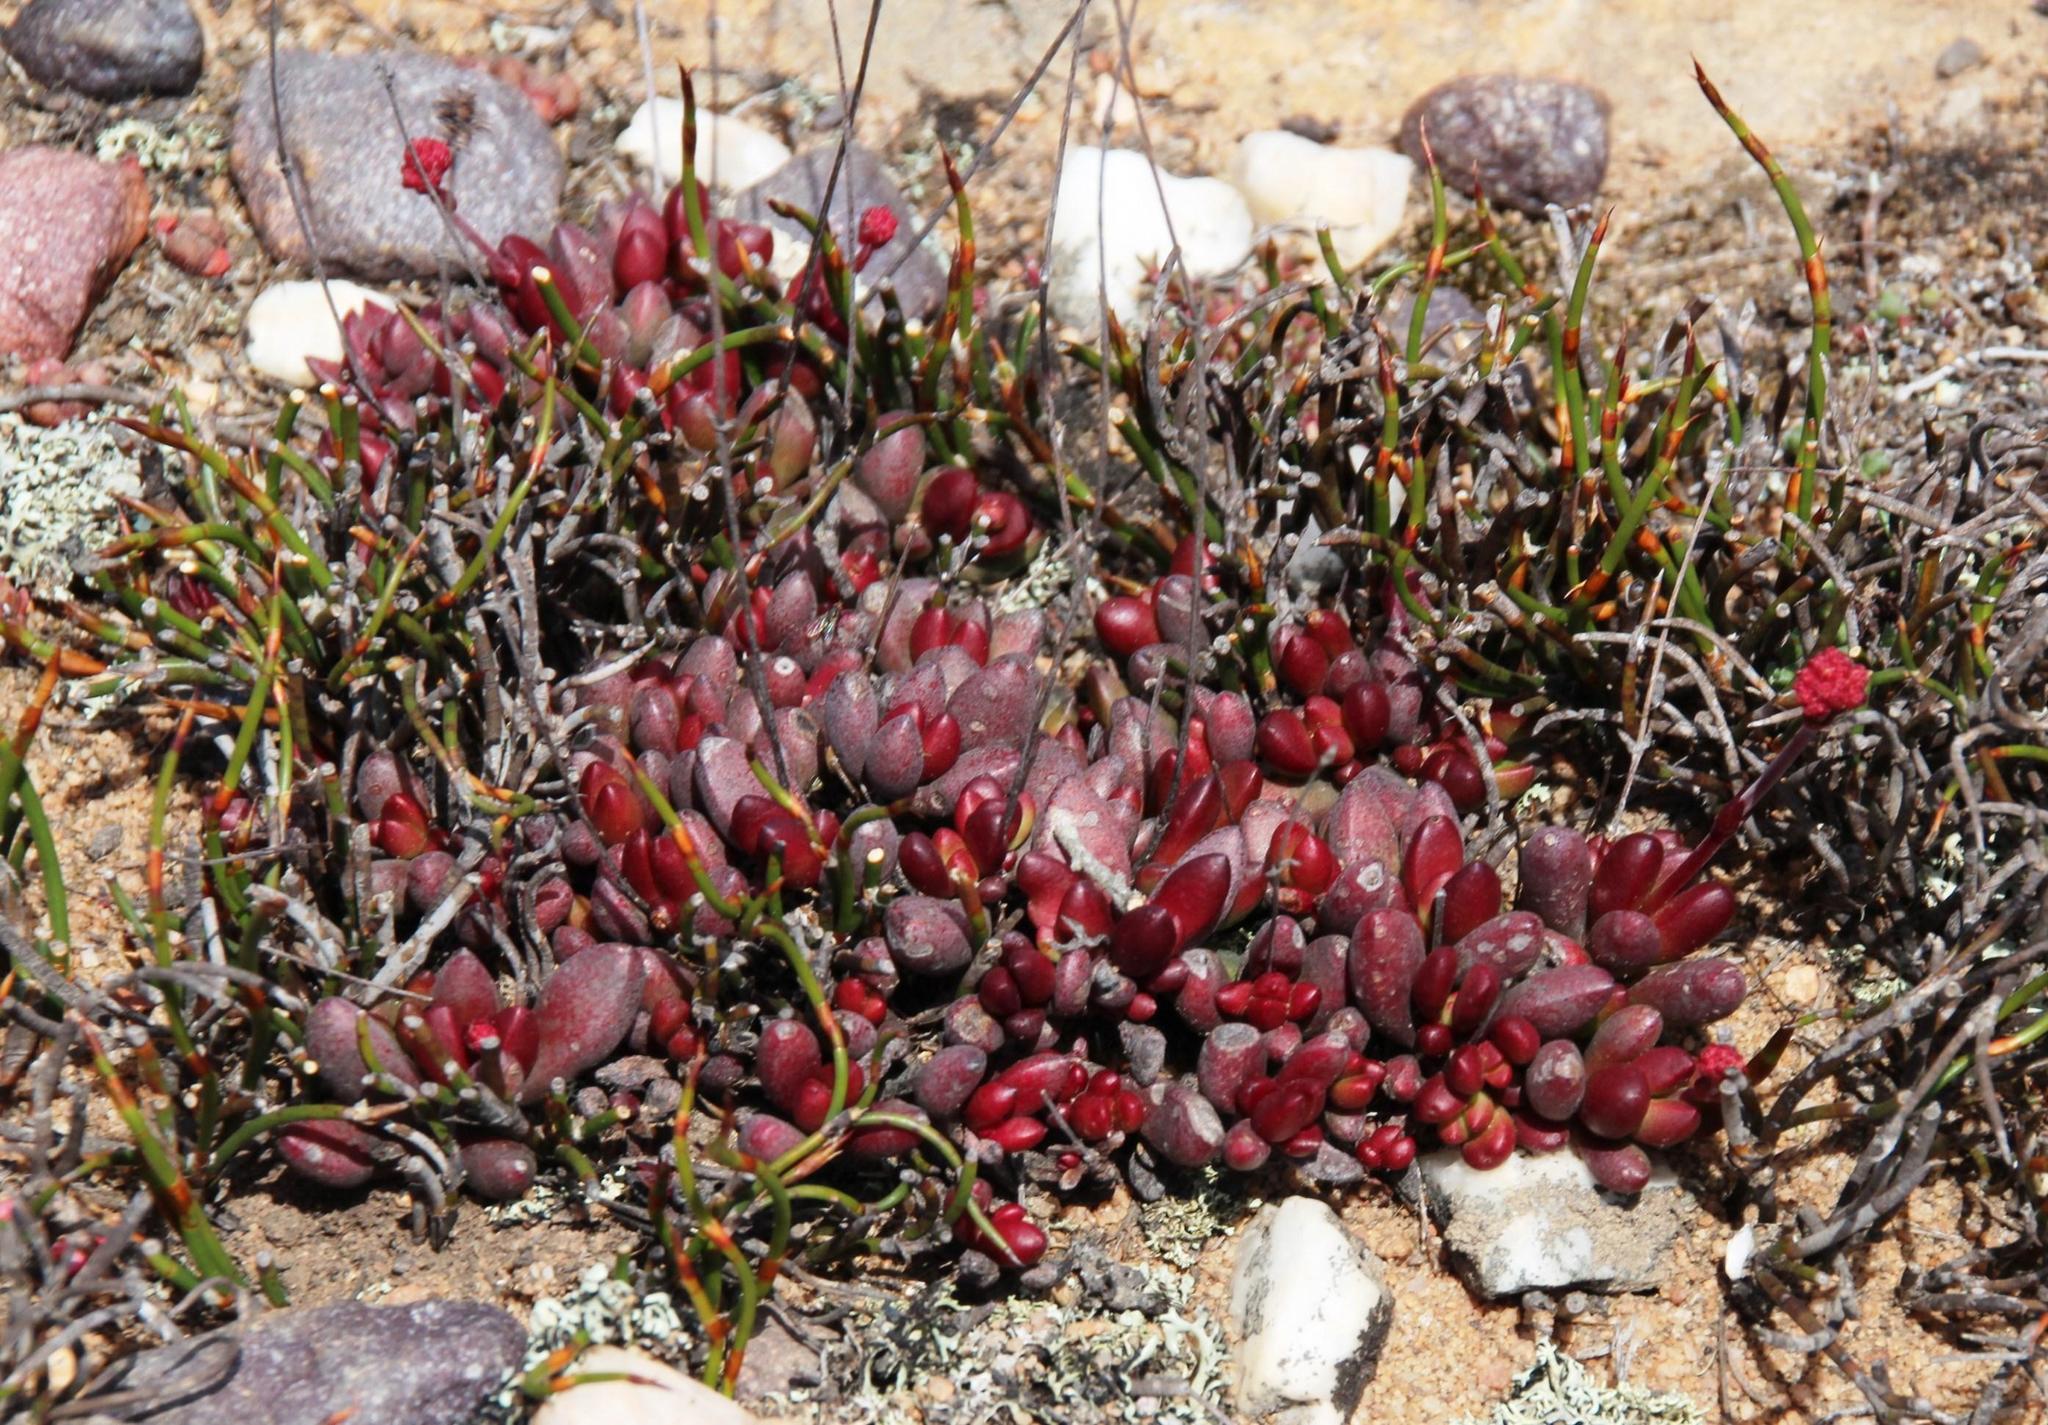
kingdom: Plantae
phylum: Tracheophyta
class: Magnoliopsida
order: Saxifragales
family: Crassulaceae
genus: Crassula
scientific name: Crassula clavata
